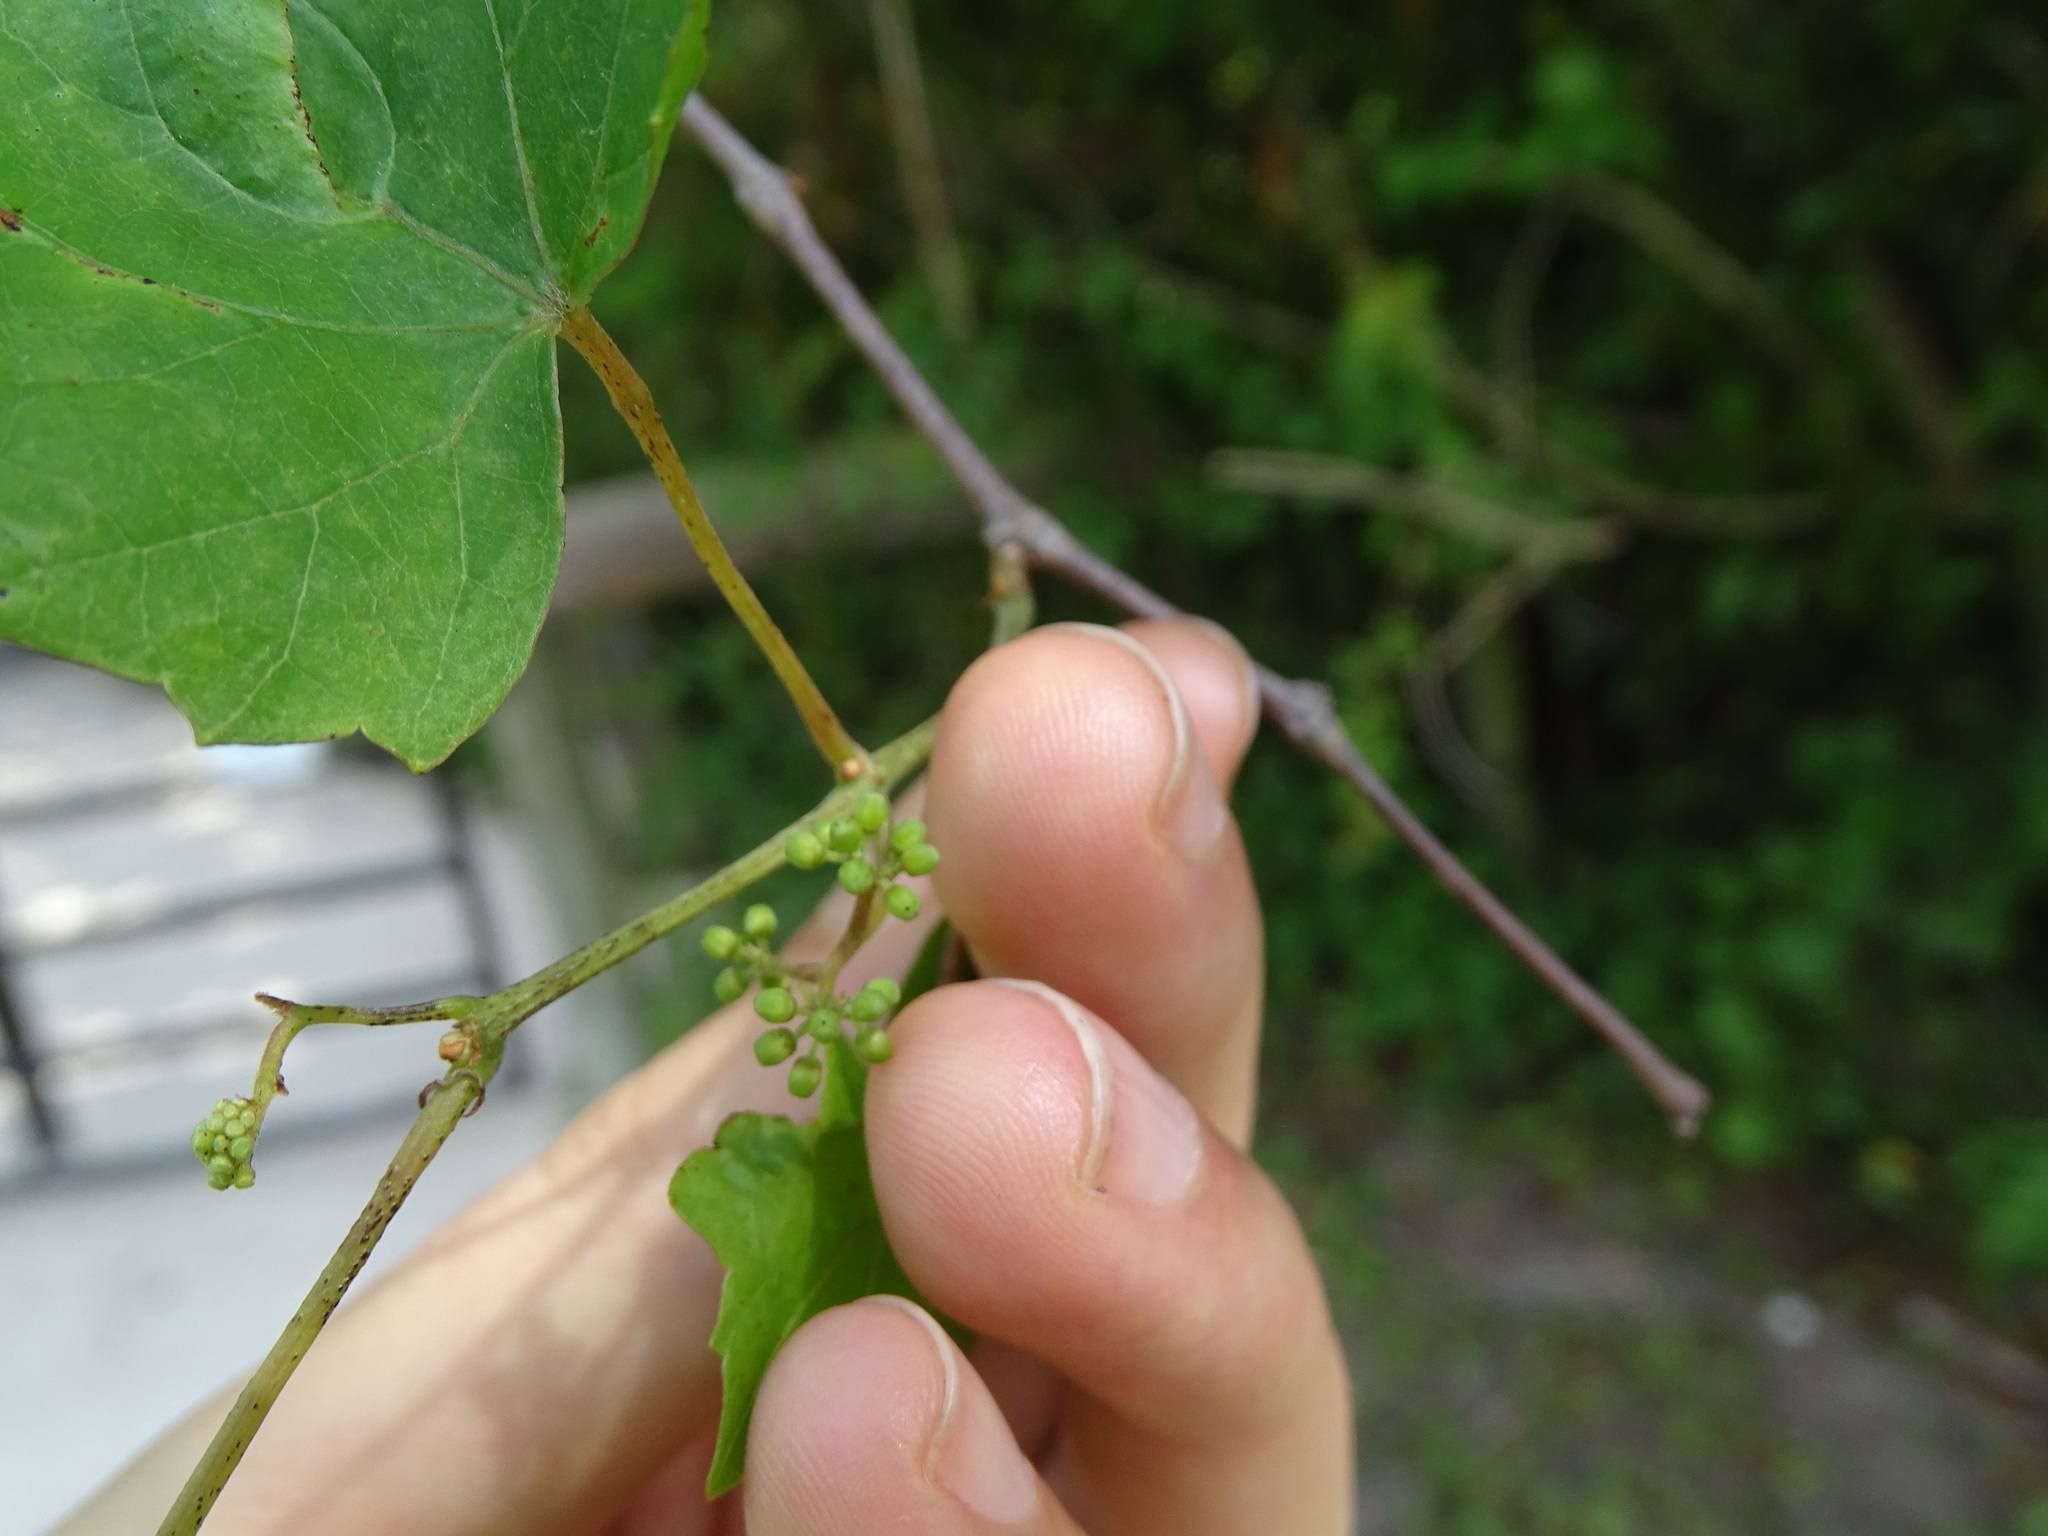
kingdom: Plantae
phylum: Tracheophyta
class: Magnoliopsida
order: Vitales
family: Vitaceae
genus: Vitis
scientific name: Vitis rotundifolia
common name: Muscadine grape
